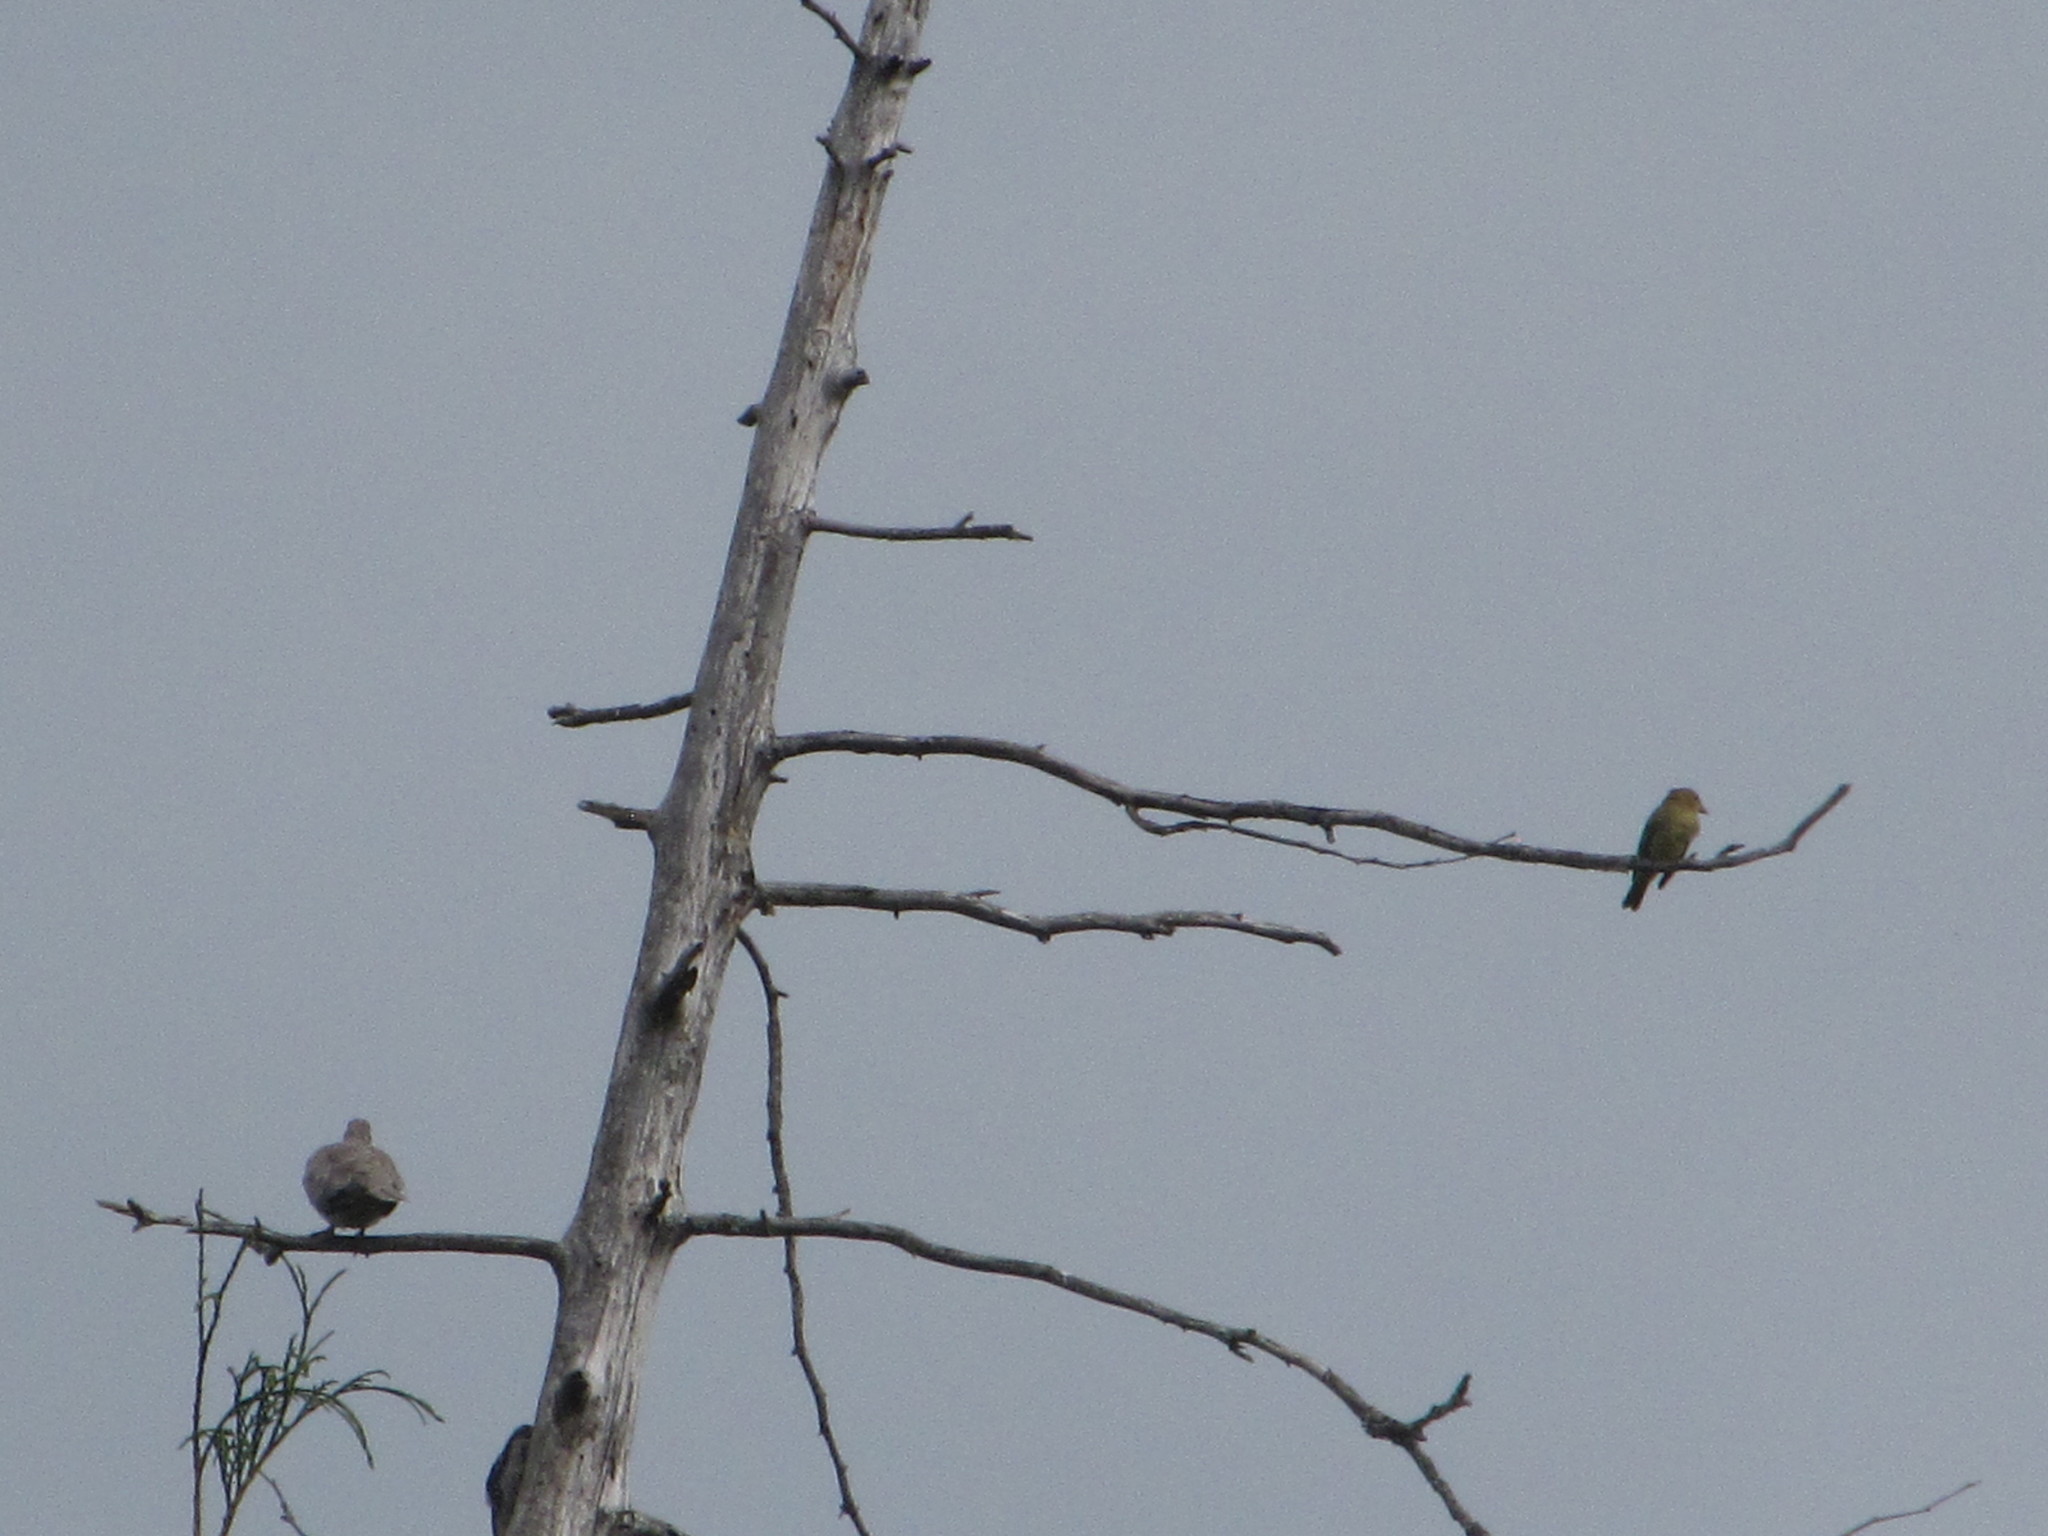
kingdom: Animalia
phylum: Chordata
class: Aves
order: Columbiformes
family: Columbidae
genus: Streptopelia
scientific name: Streptopelia decaocto
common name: Eurasian collared dove
